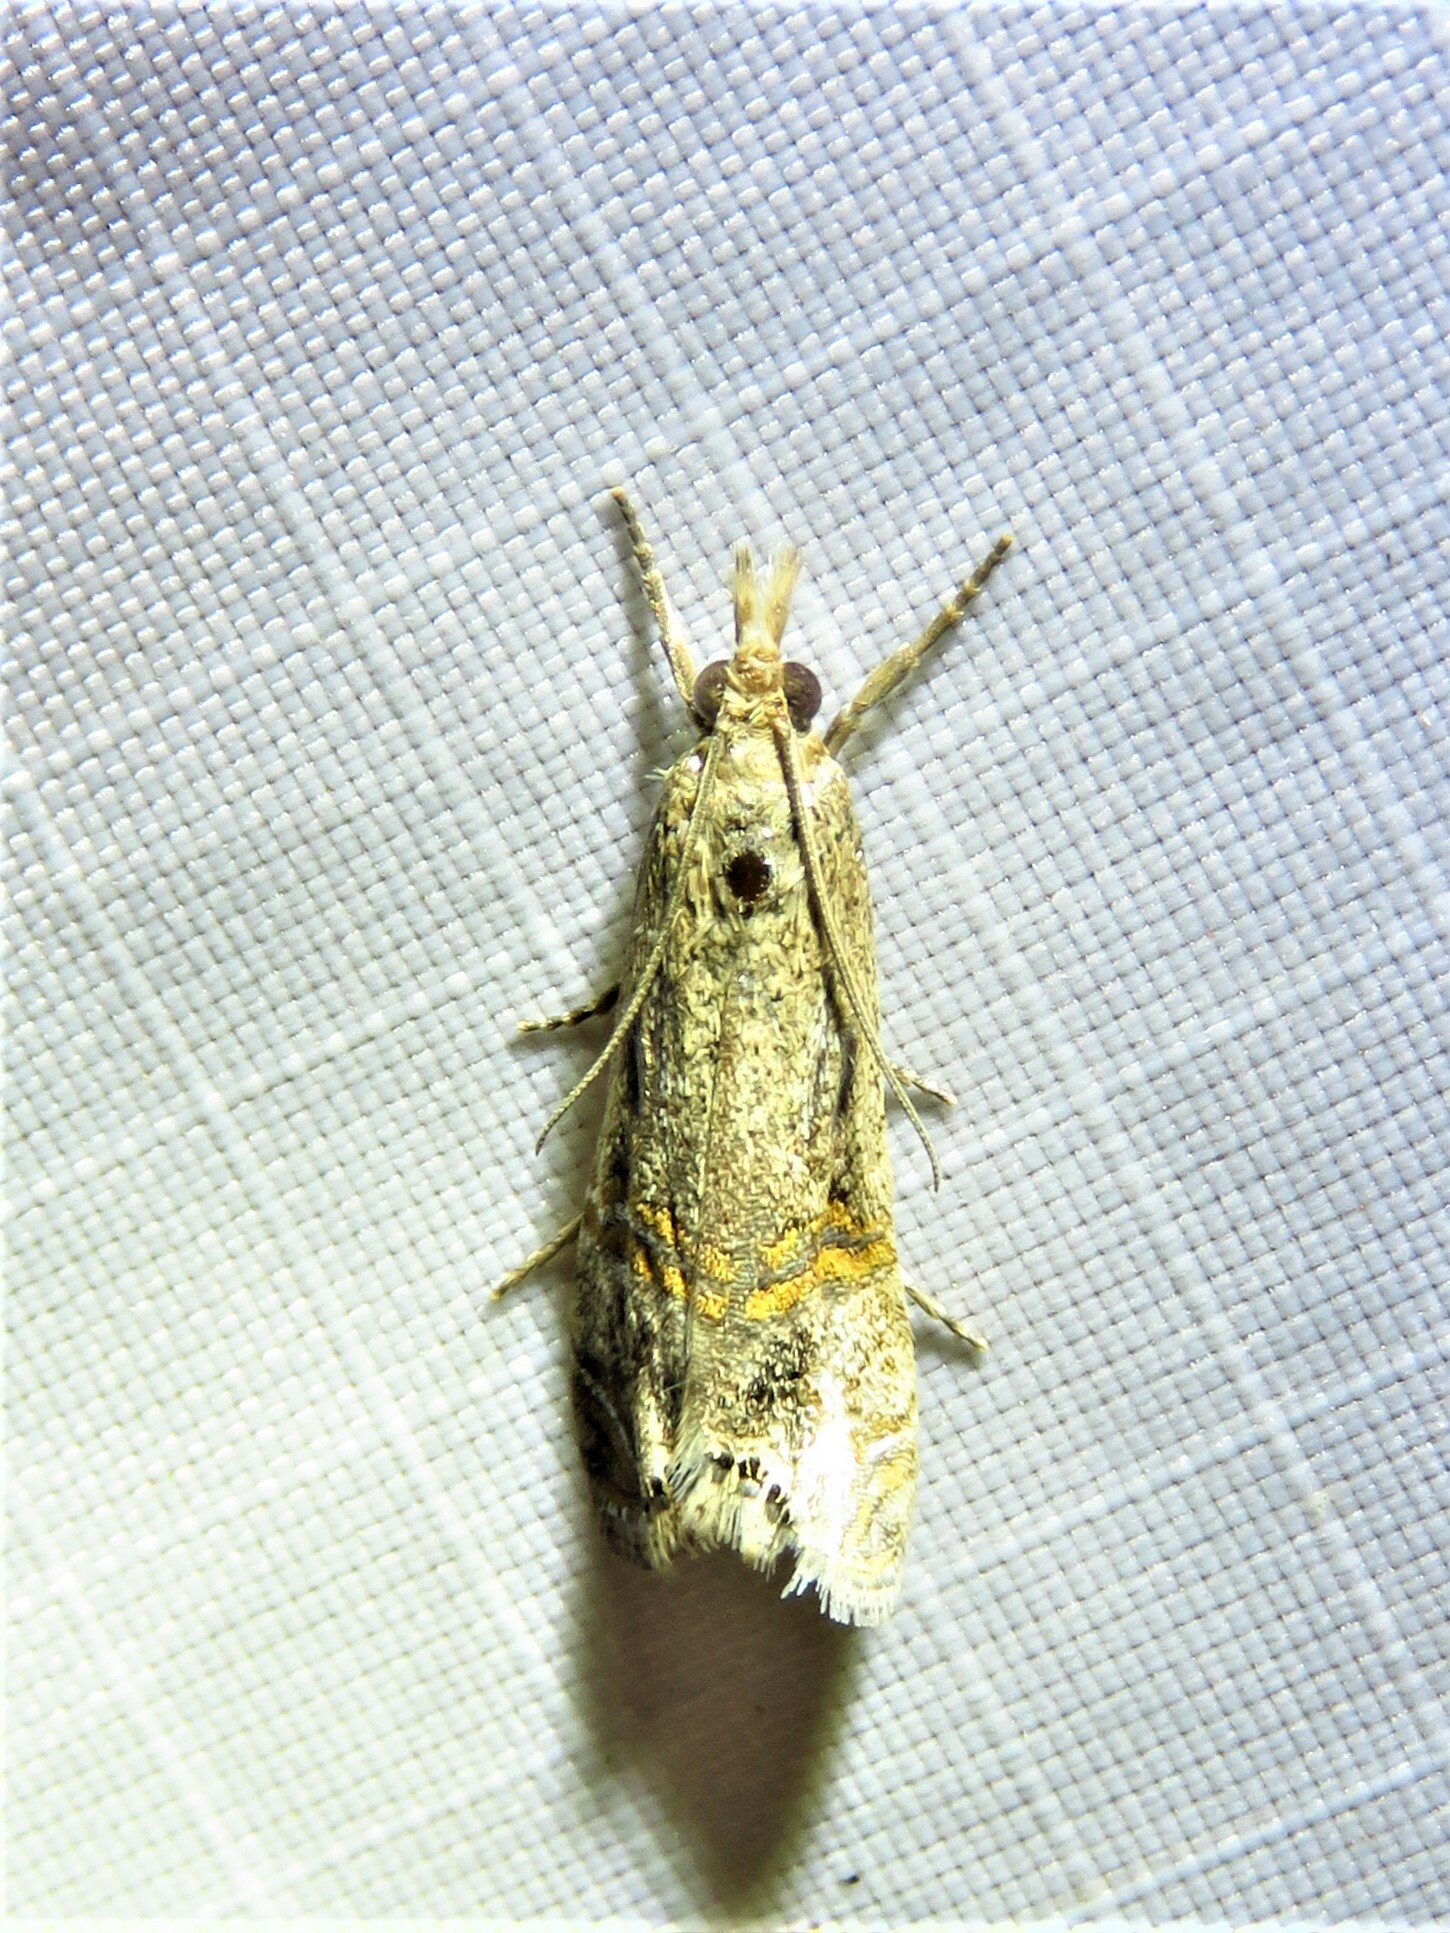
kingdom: Animalia
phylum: Arthropoda
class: Insecta
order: Lepidoptera
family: Crambidae
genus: Euchromius
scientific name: Euchromius ocellea
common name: Necklace veneer moth
